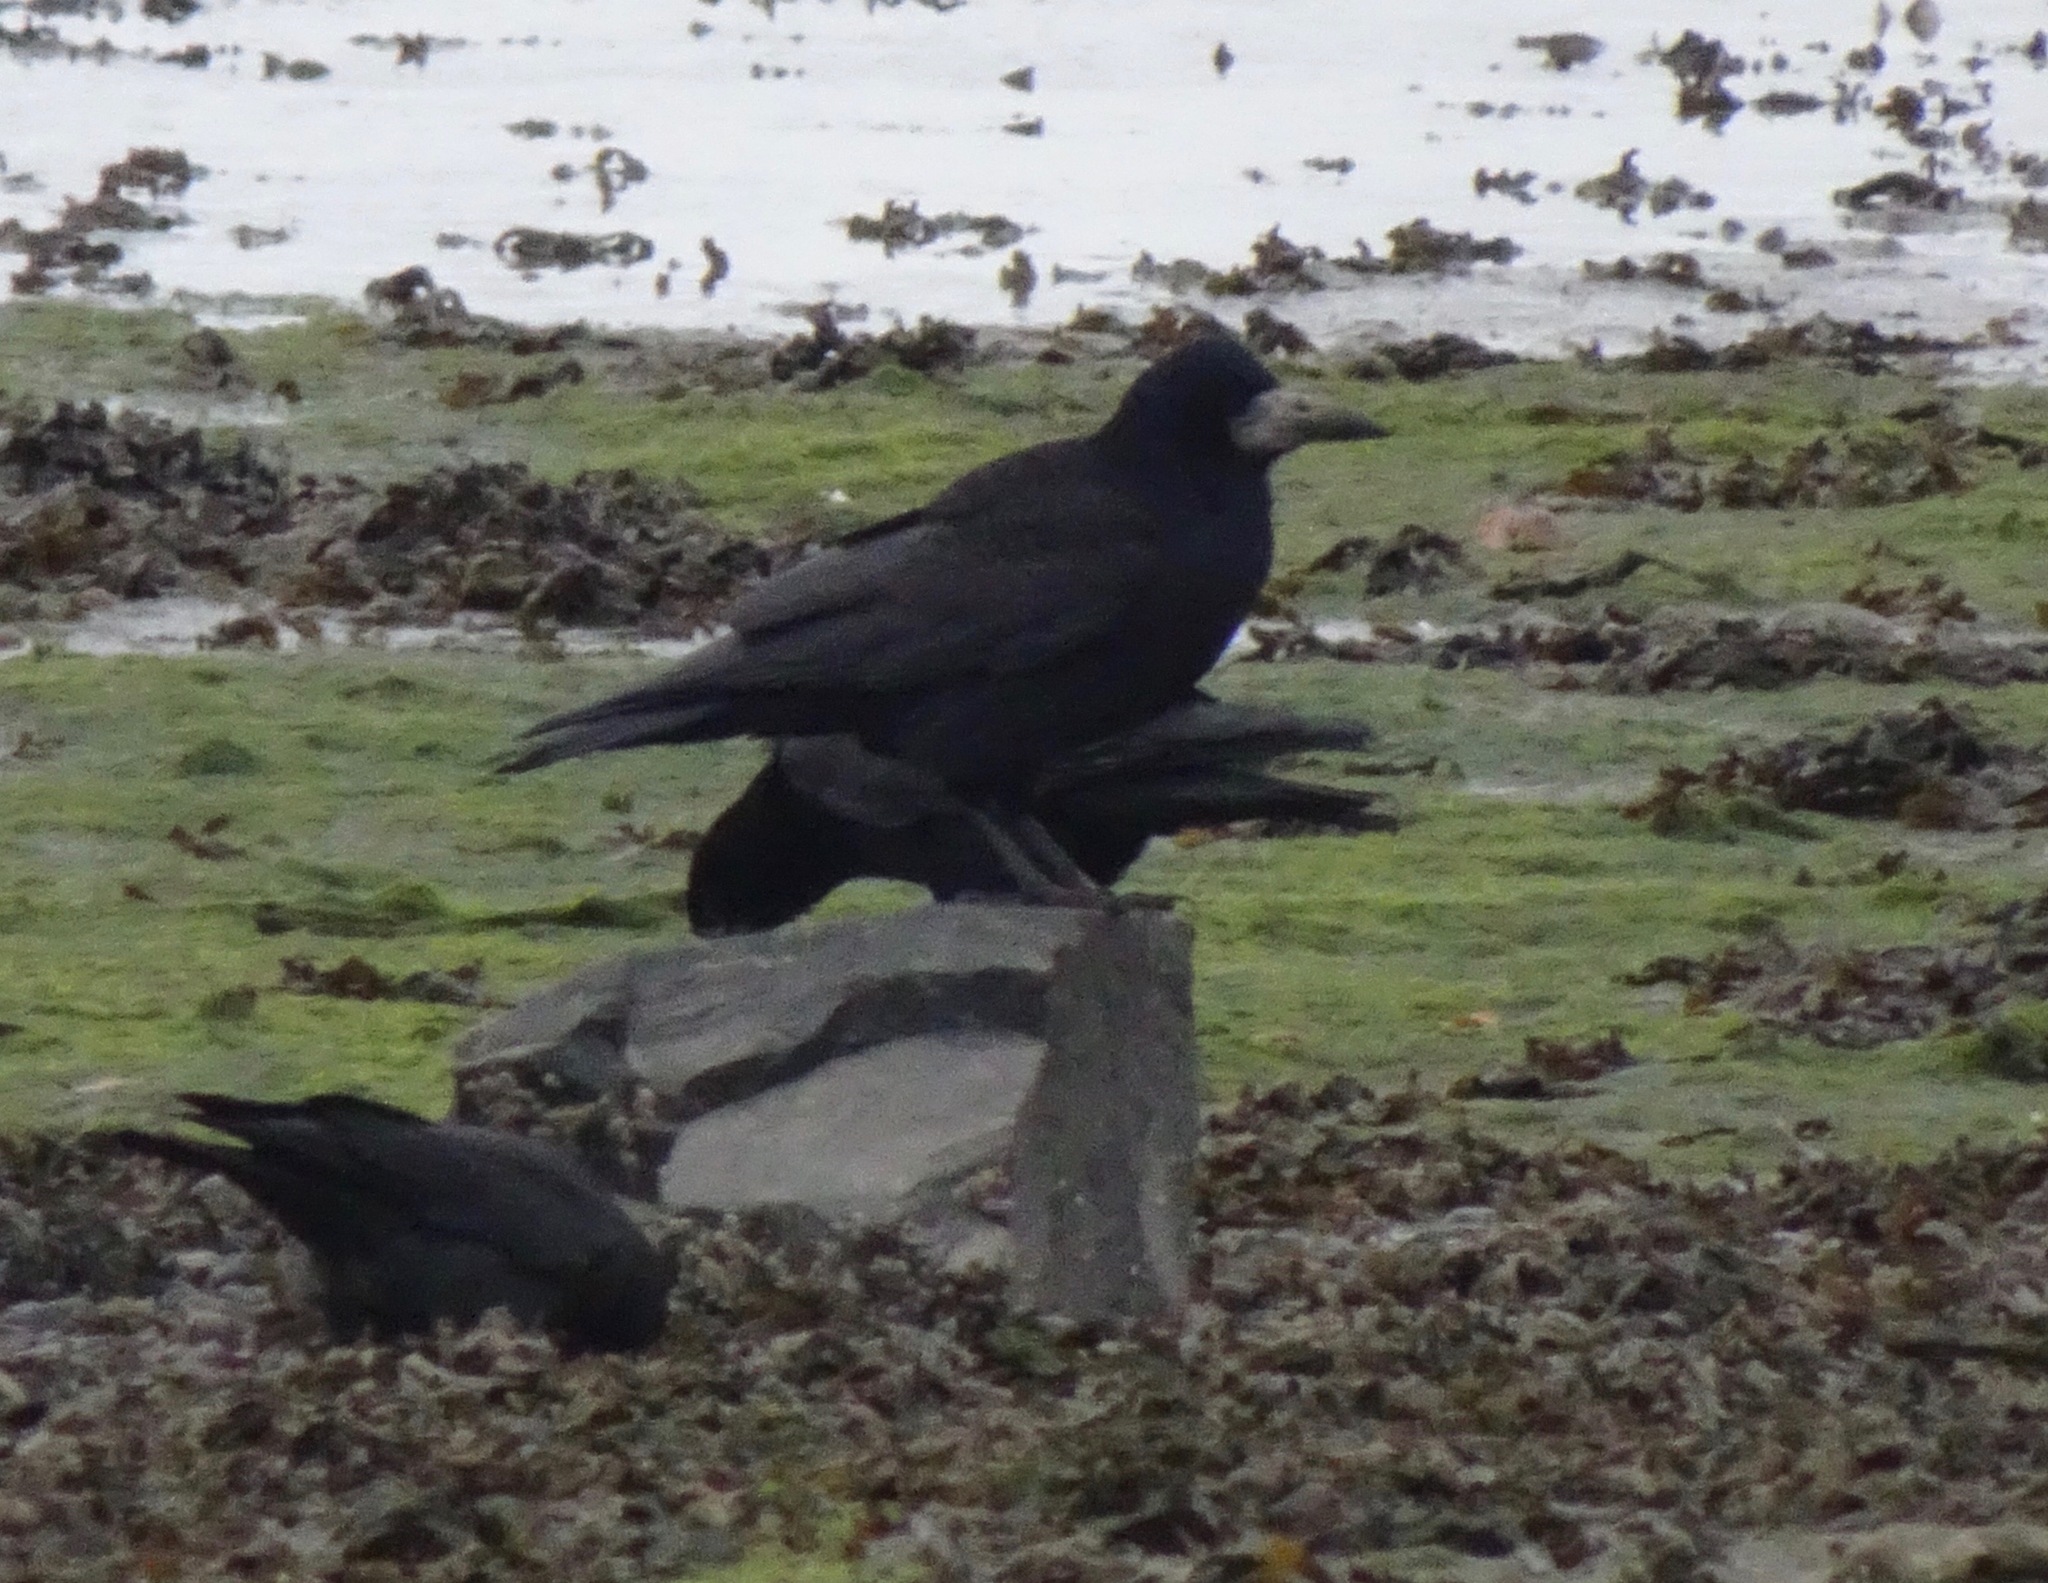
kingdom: Animalia
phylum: Chordata
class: Aves
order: Passeriformes
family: Corvidae
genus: Corvus
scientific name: Corvus frugilegus
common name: Rook
